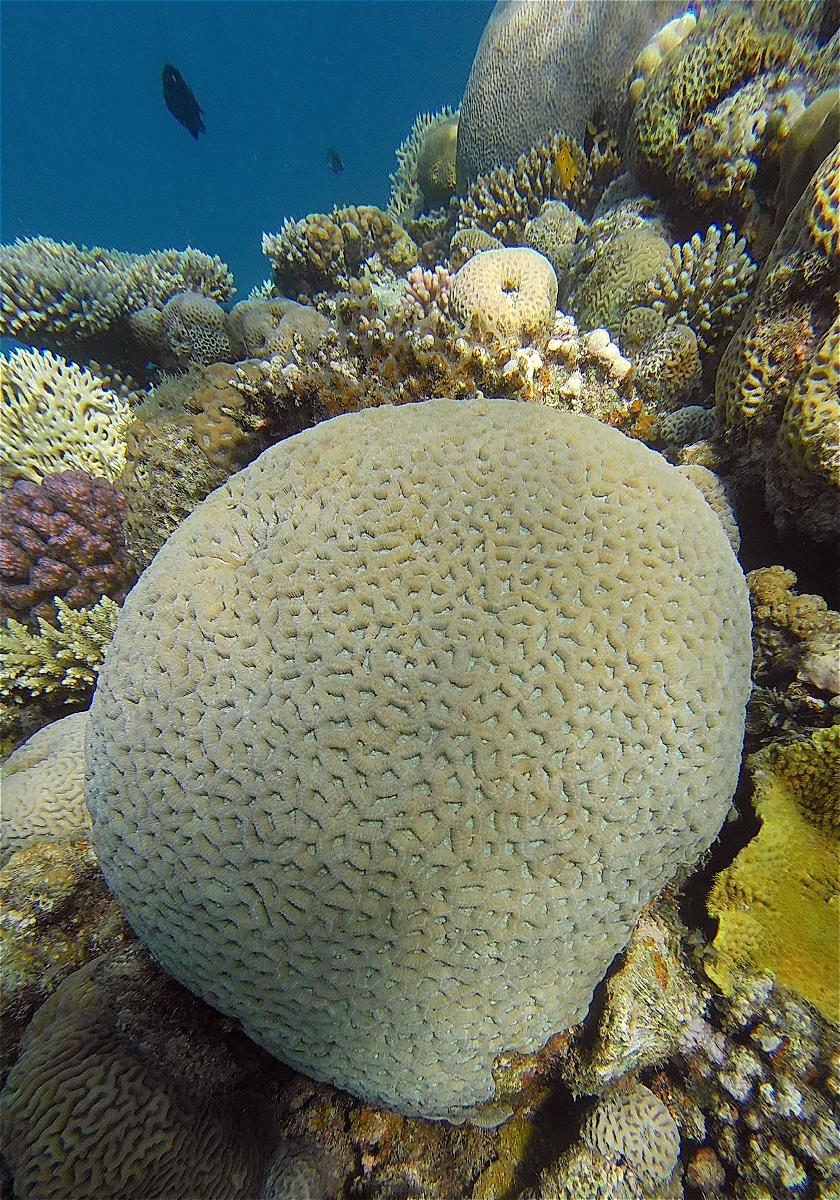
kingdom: Animalia
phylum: Cnidaria
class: Anthozoa
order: Scleractinia
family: Merulinidae
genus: Goniastrea
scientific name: Goniastrea thecata
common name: Lesser star coral
